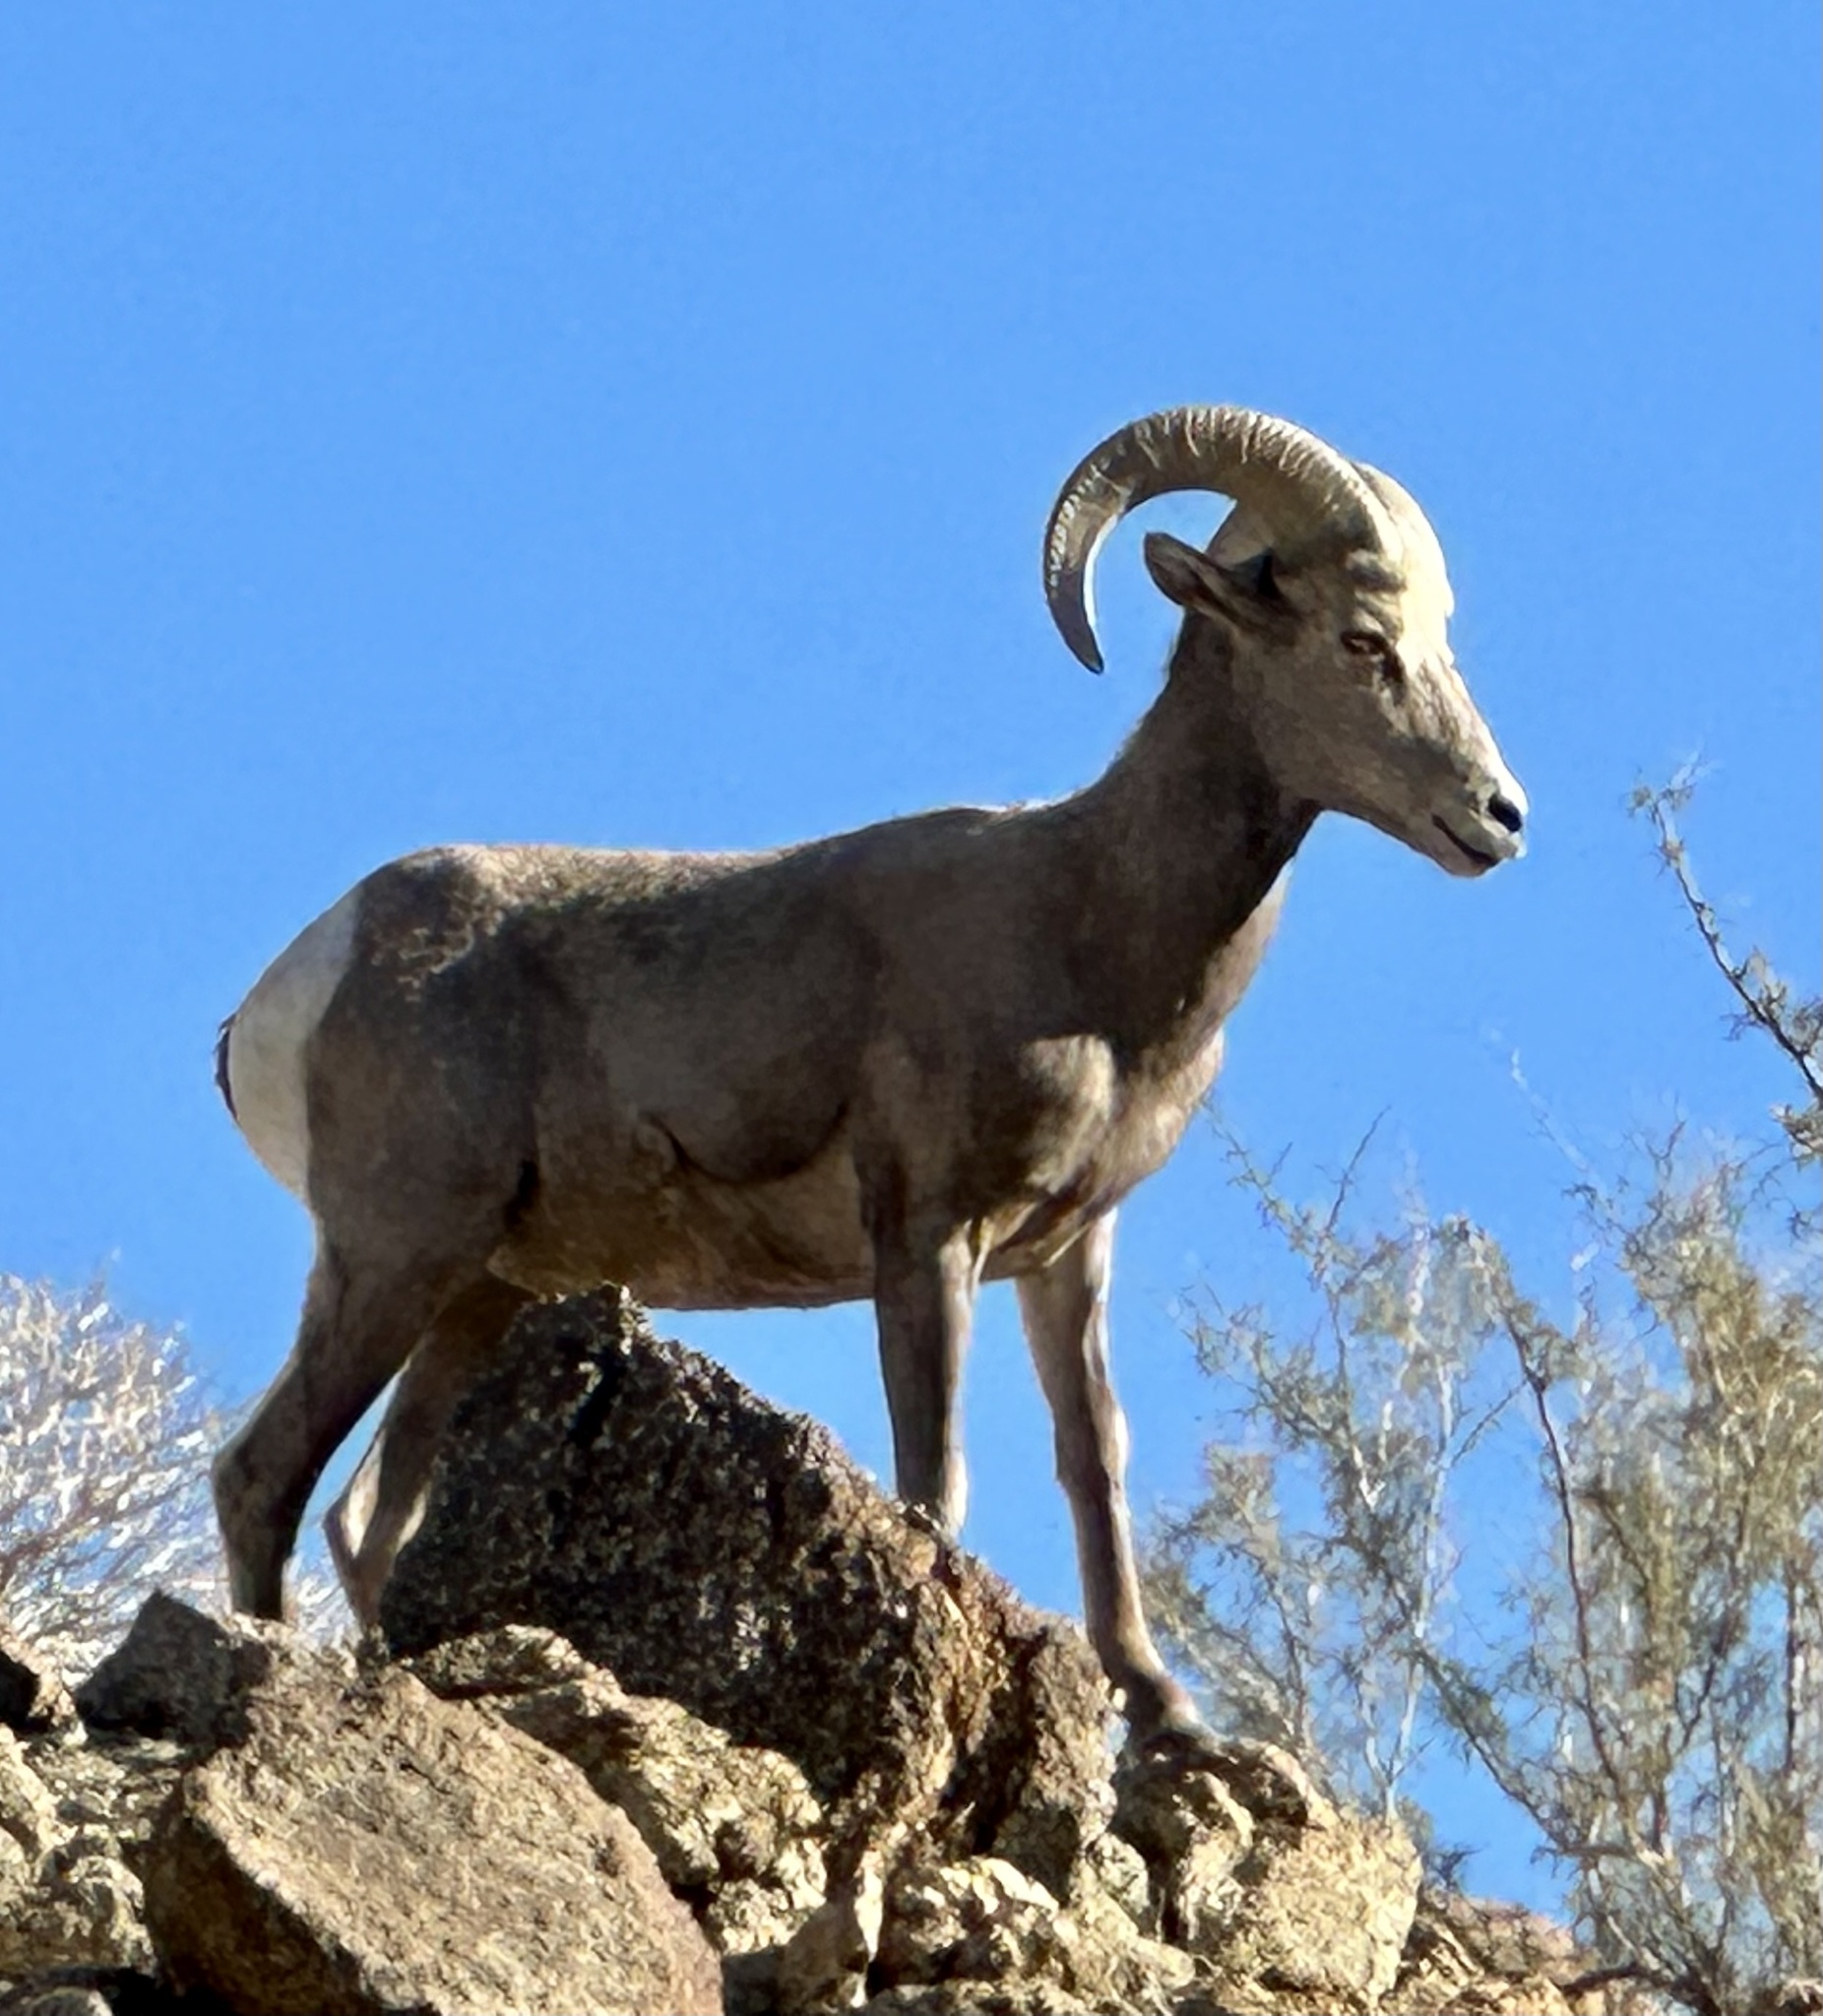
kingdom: Animalia
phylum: Chordata
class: Mammalia
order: Artiodactyla
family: Bovidae
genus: Ovis
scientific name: Ovis canadensis
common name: Bighorn sheep
